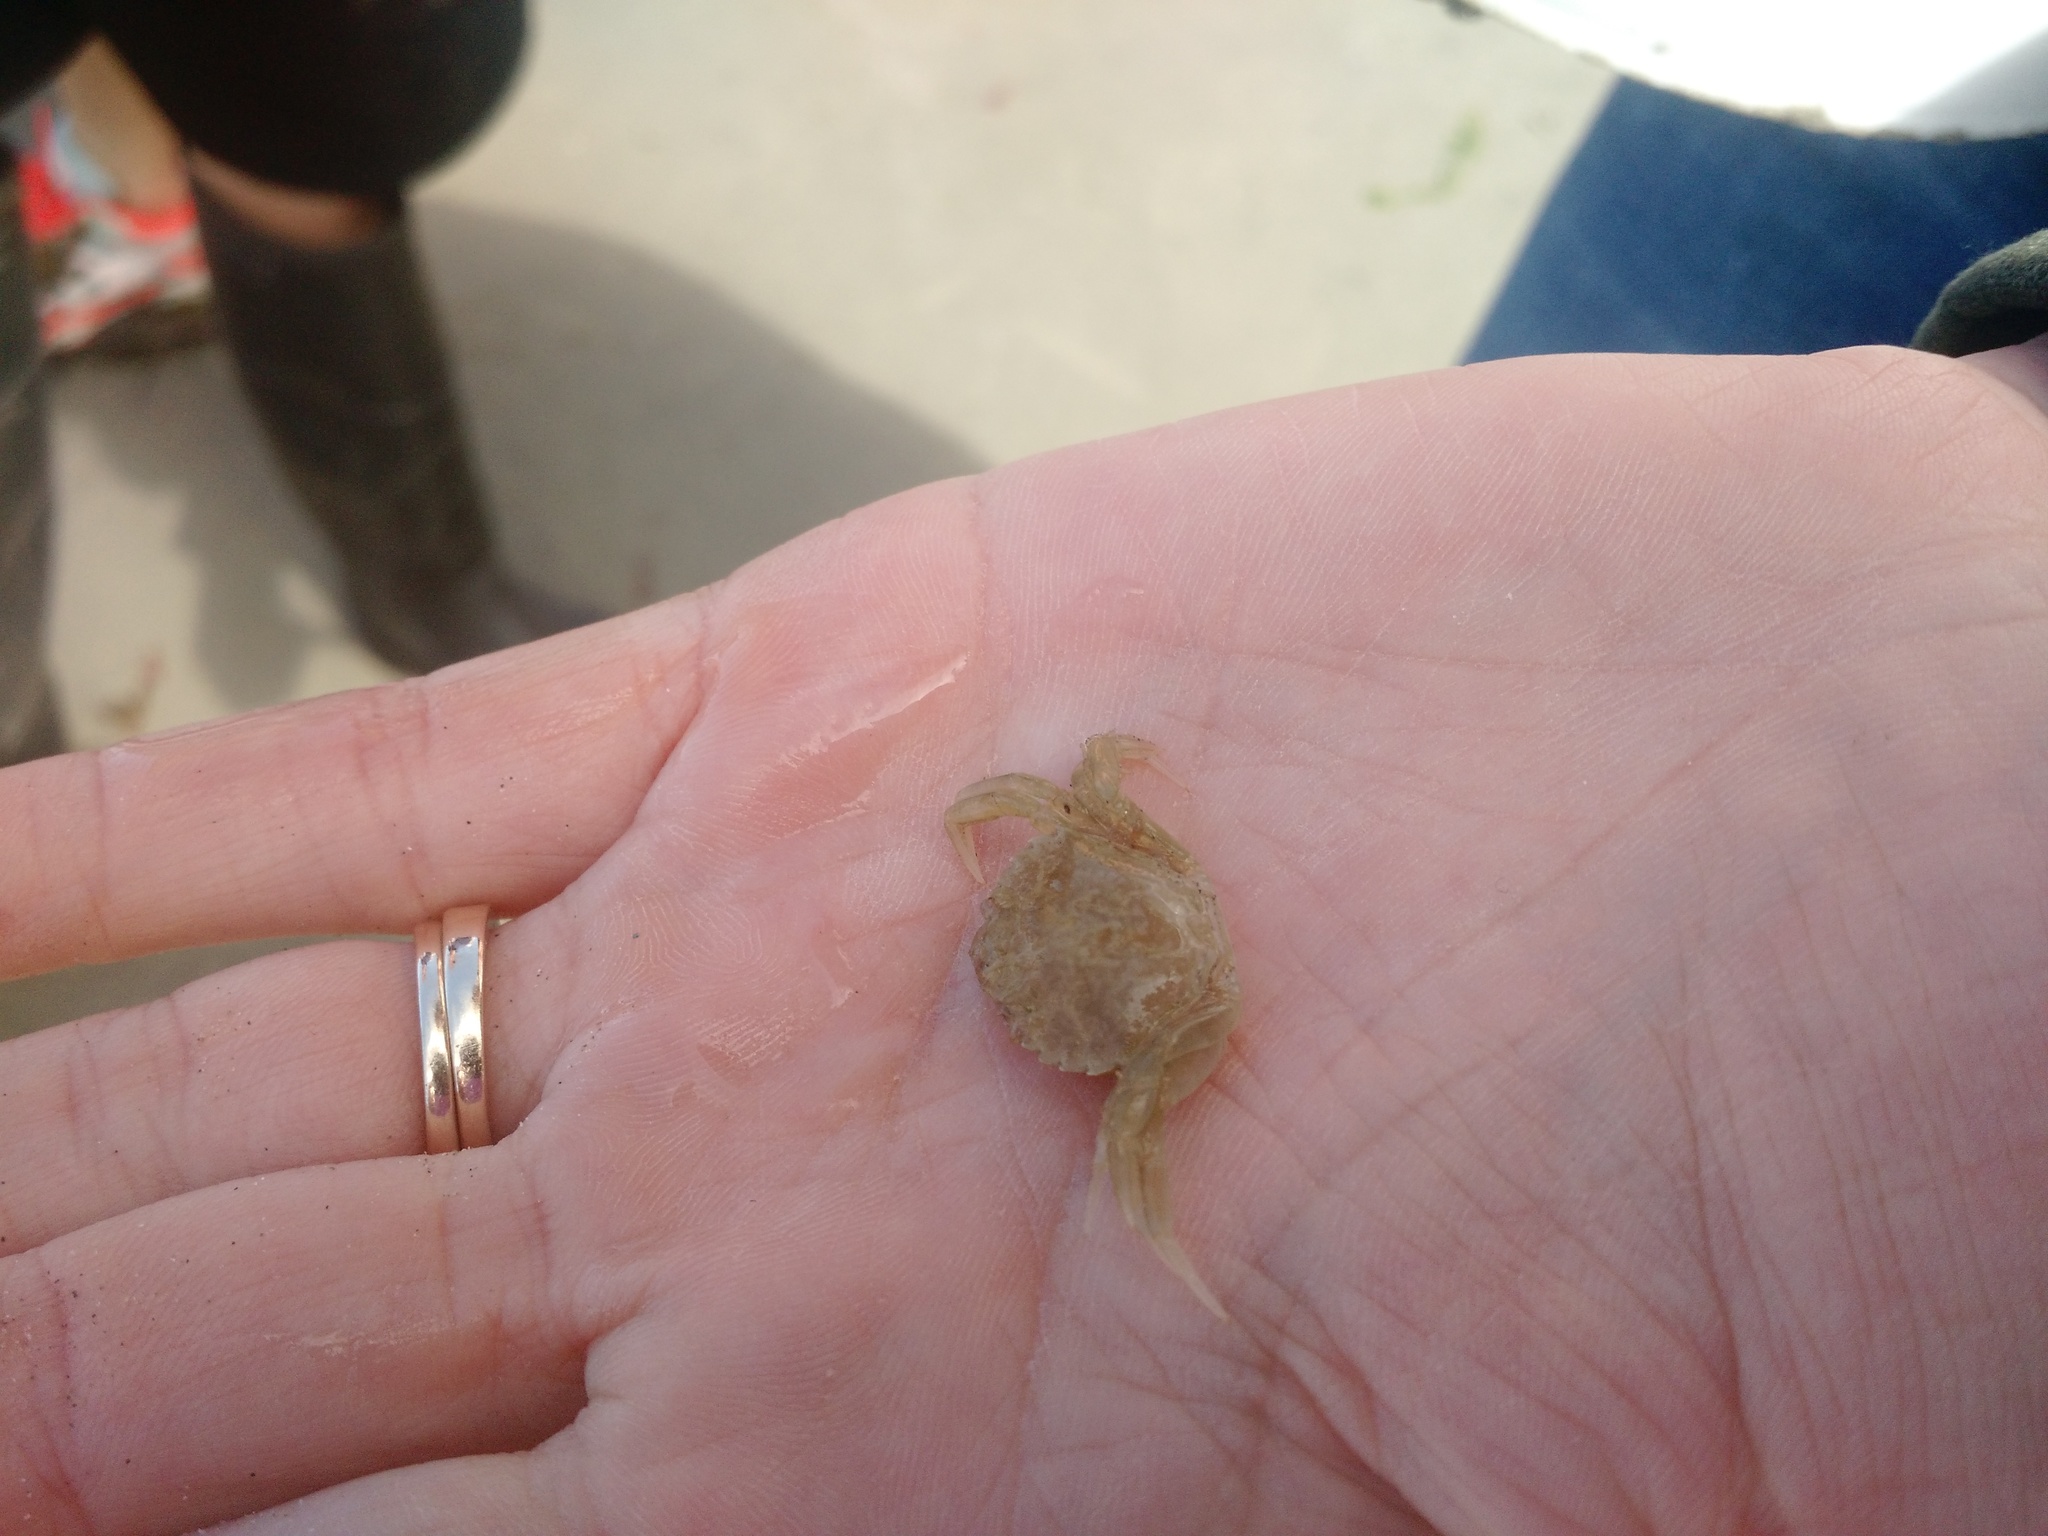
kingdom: Animalia
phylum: Arthropoda
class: Malacostraca
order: Decapoda
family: Carcinidae
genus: Carcinus
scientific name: Carcinus maenas
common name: European green crab
